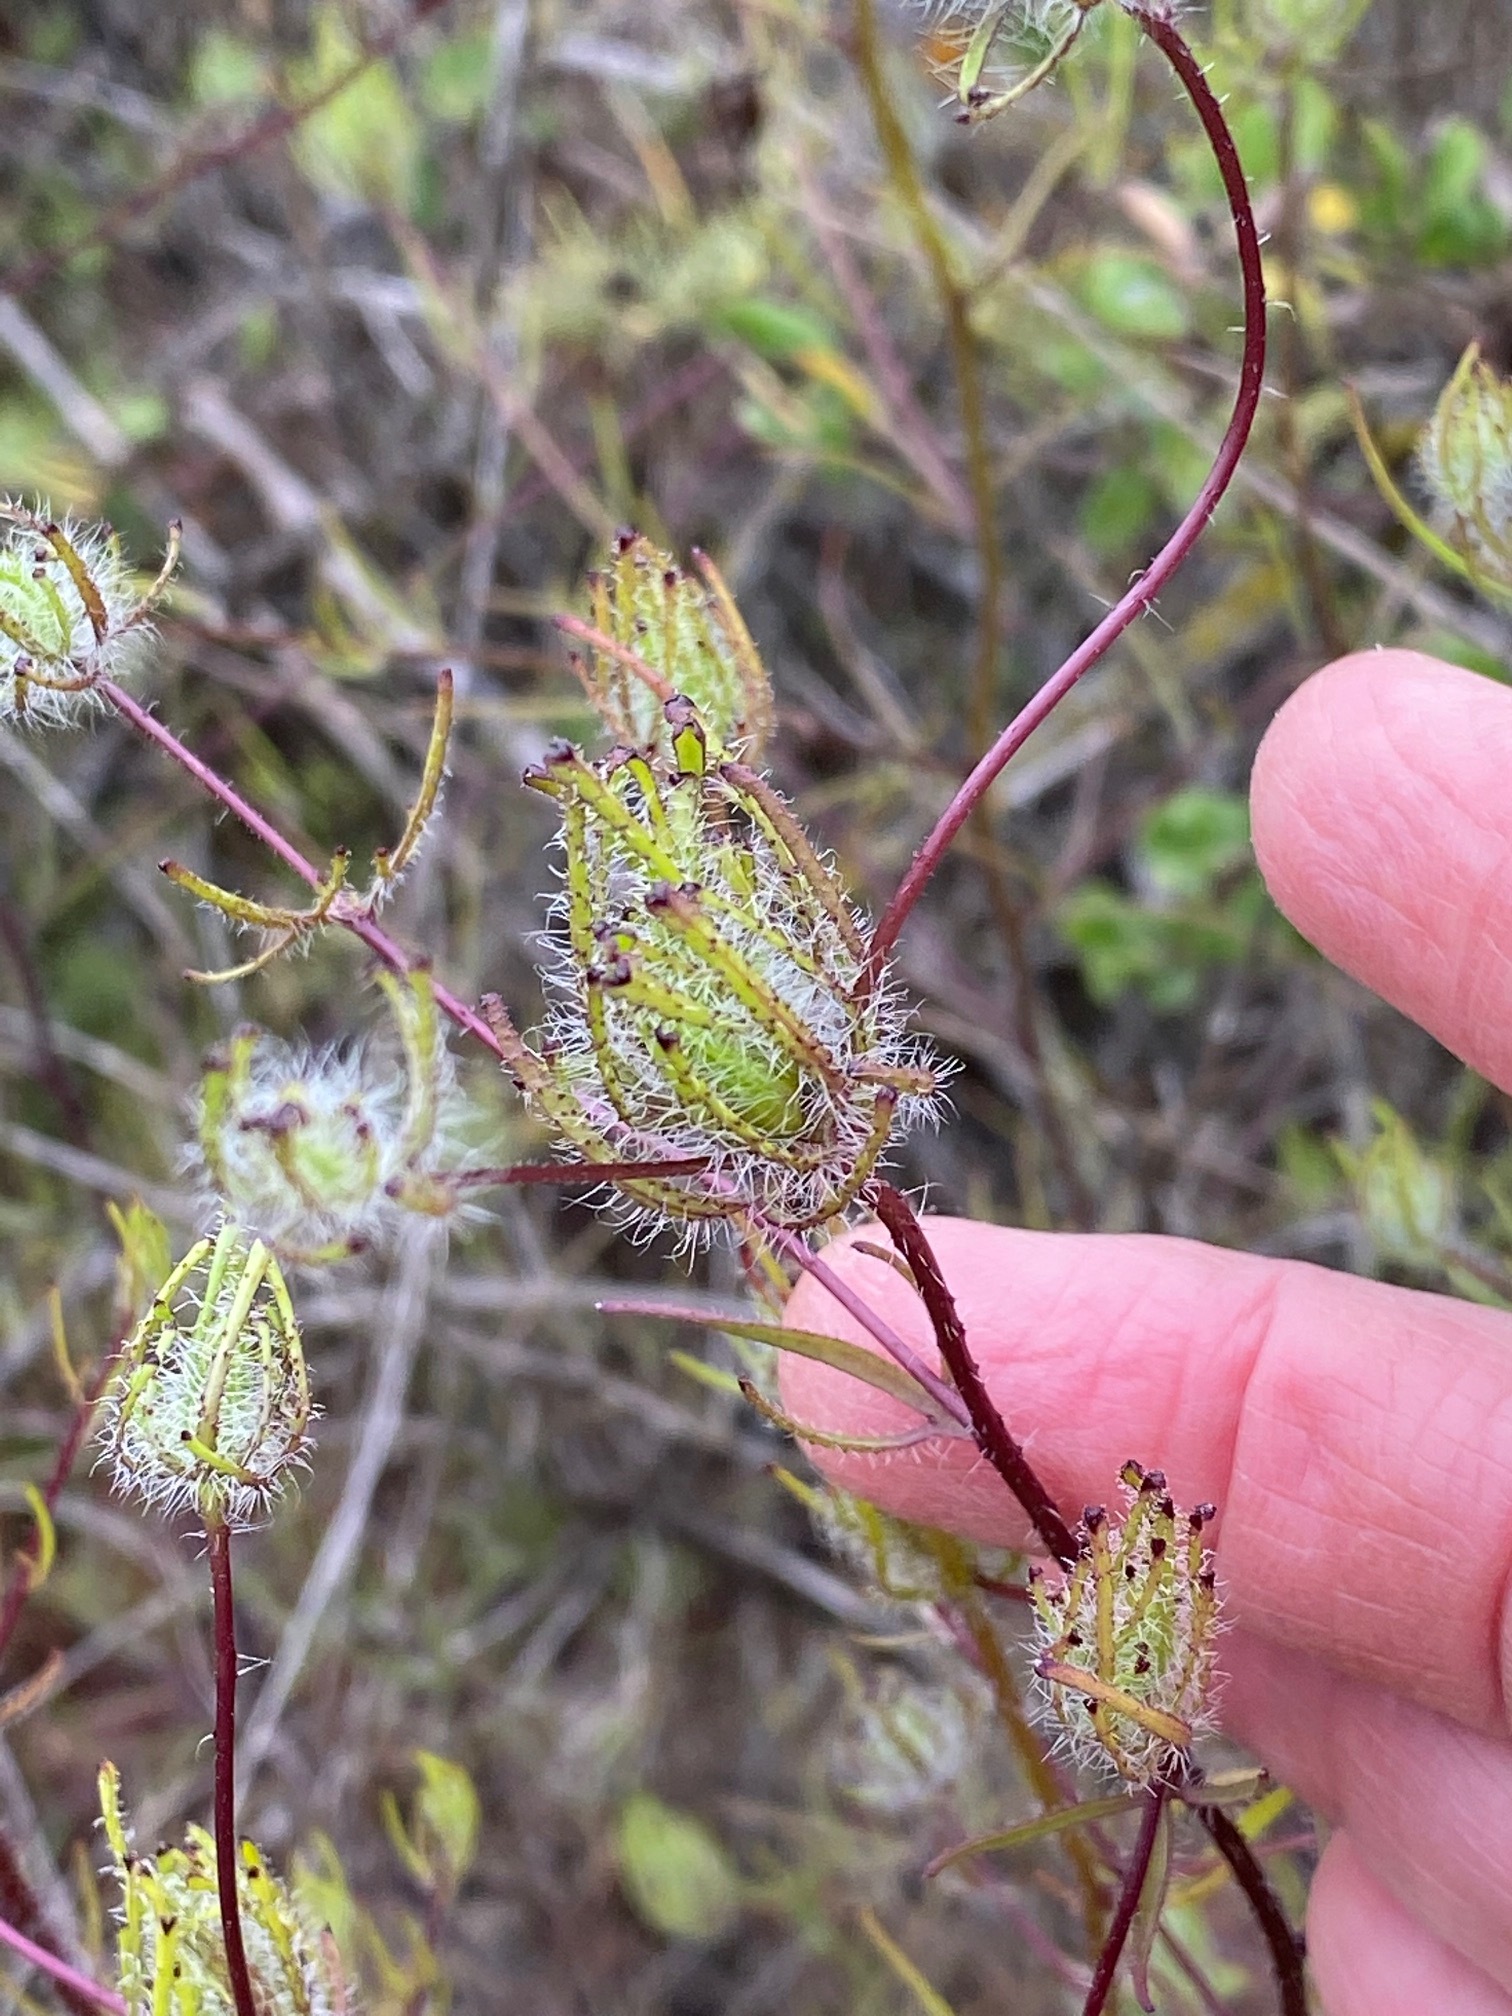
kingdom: Plantae
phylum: Tracheophyta
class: Magnoliopsida
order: Lamiales
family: Orobanchaceae
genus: Cordylanthus
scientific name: Cordylanthus rigidus
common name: Stiff-branch bird's-beak
